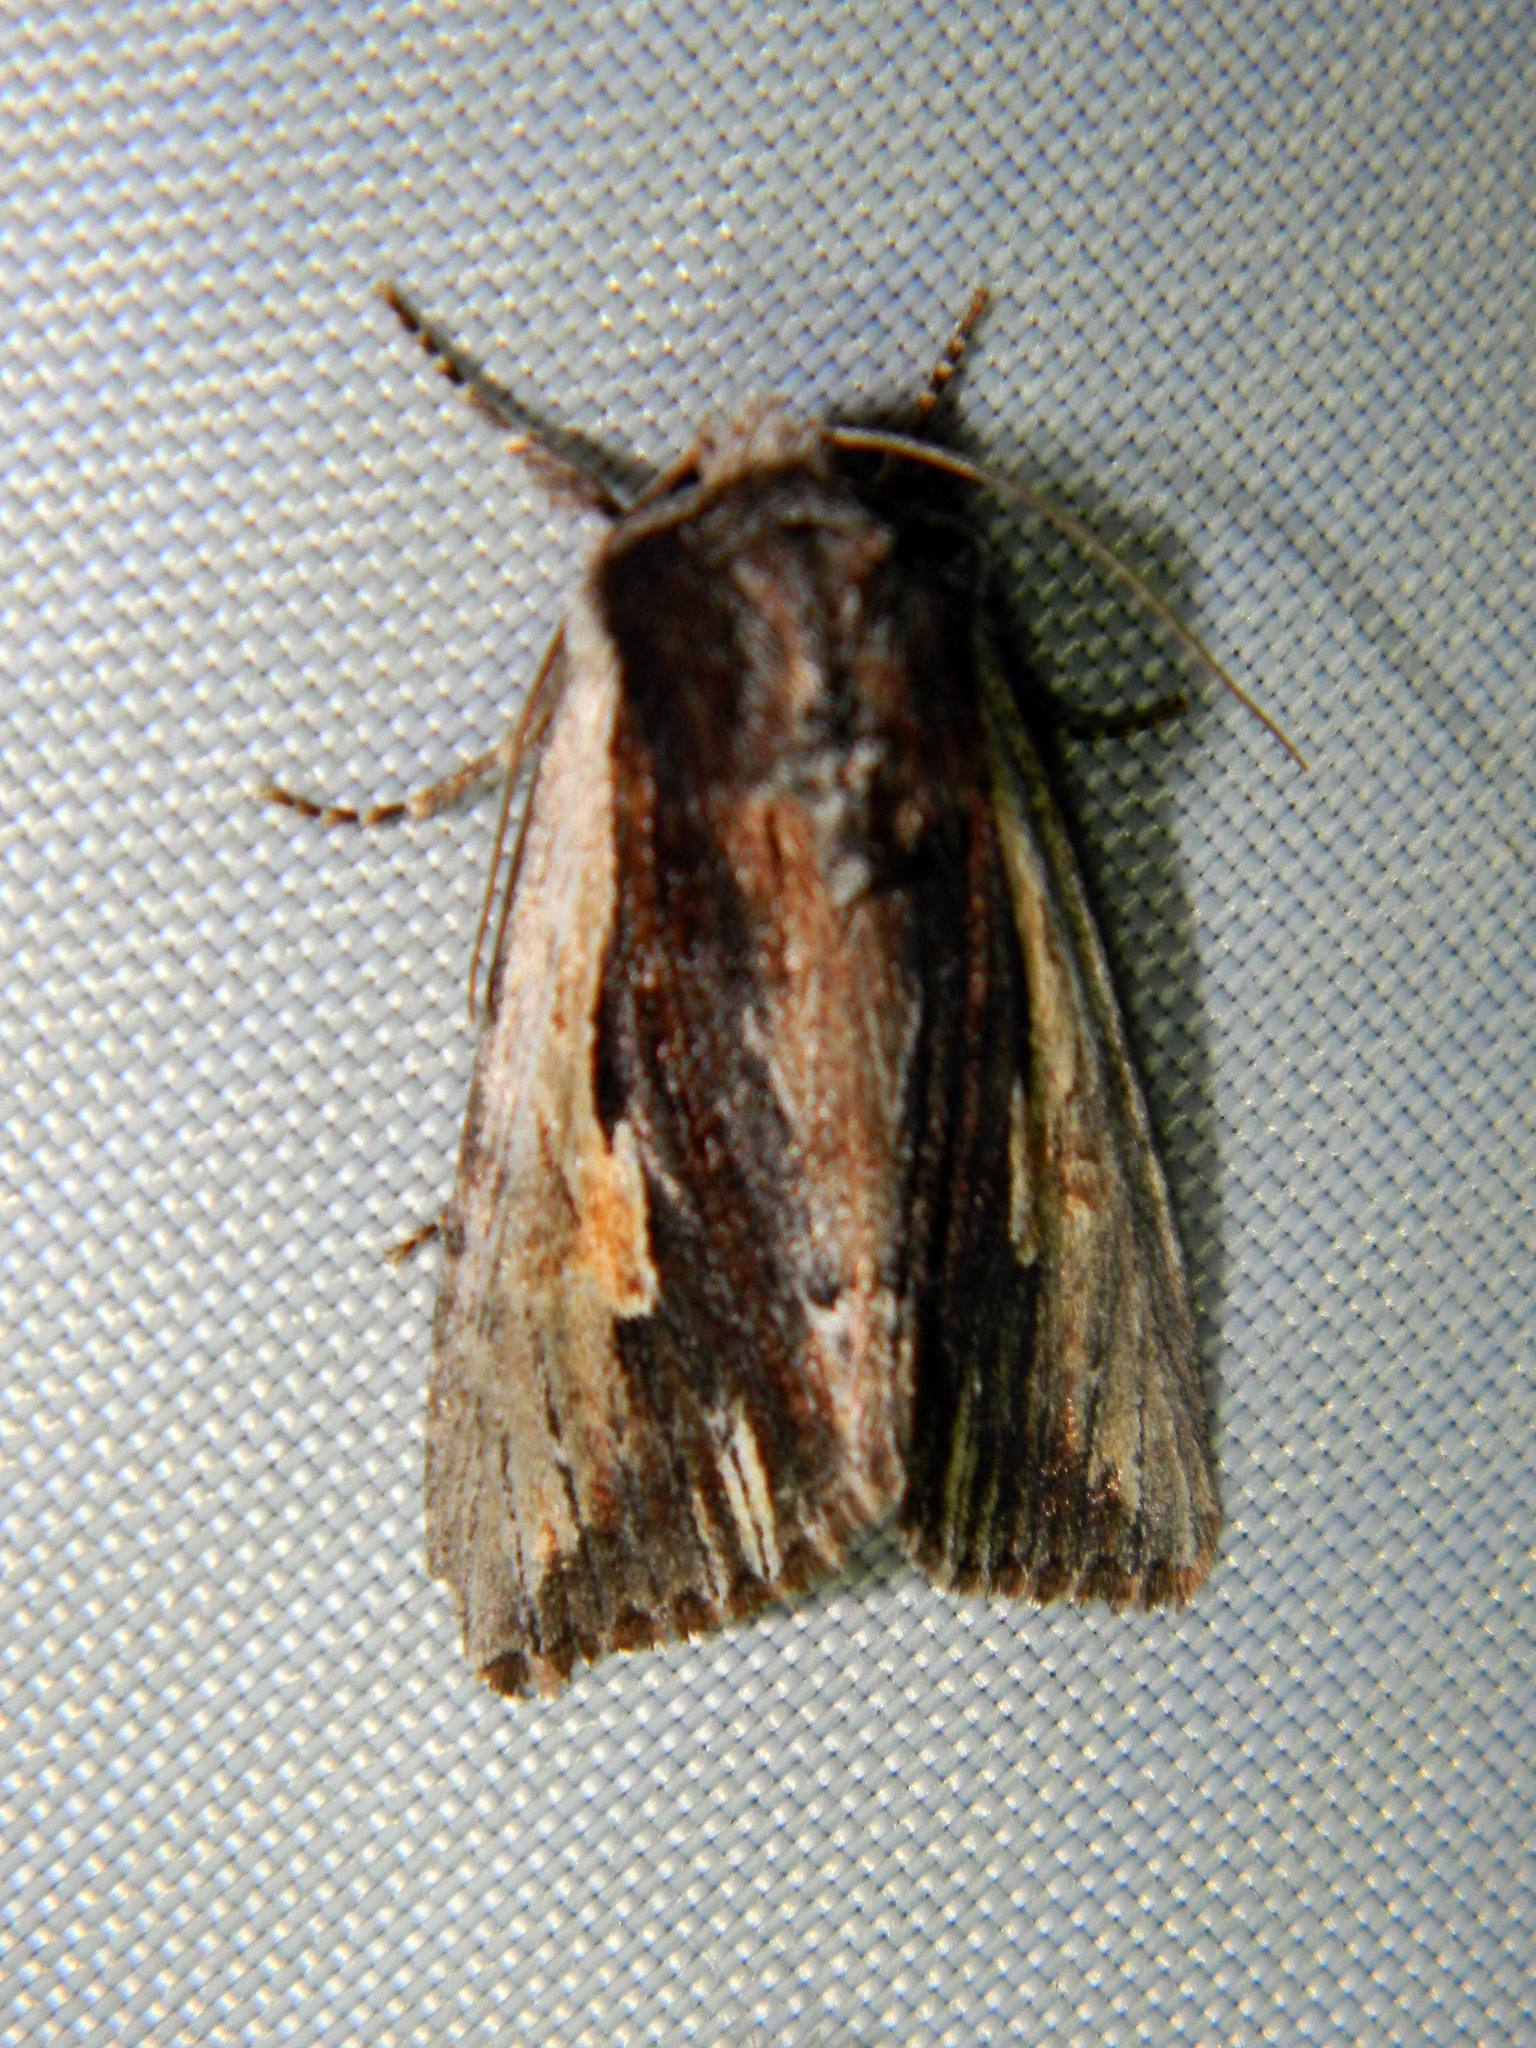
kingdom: Animalia
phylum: Arthropoda
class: Insecta
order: Lepidoptera
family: Noctuidae
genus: Achatia
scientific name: Achatia evicta
